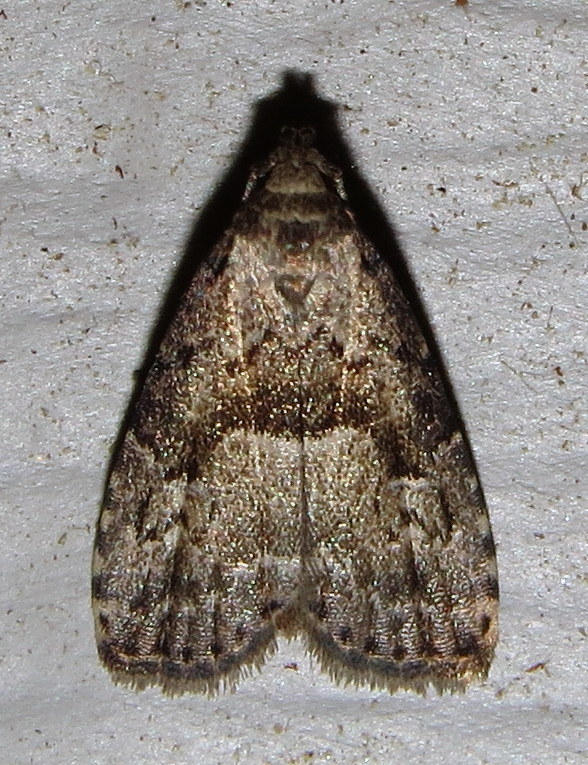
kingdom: Animalia
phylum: Arthropoda
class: Insecta
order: Lepidoptera
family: Erebidae
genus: Hypenodes
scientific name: Hypenodes franclemonti
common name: Franclemont's hypenodes moth
